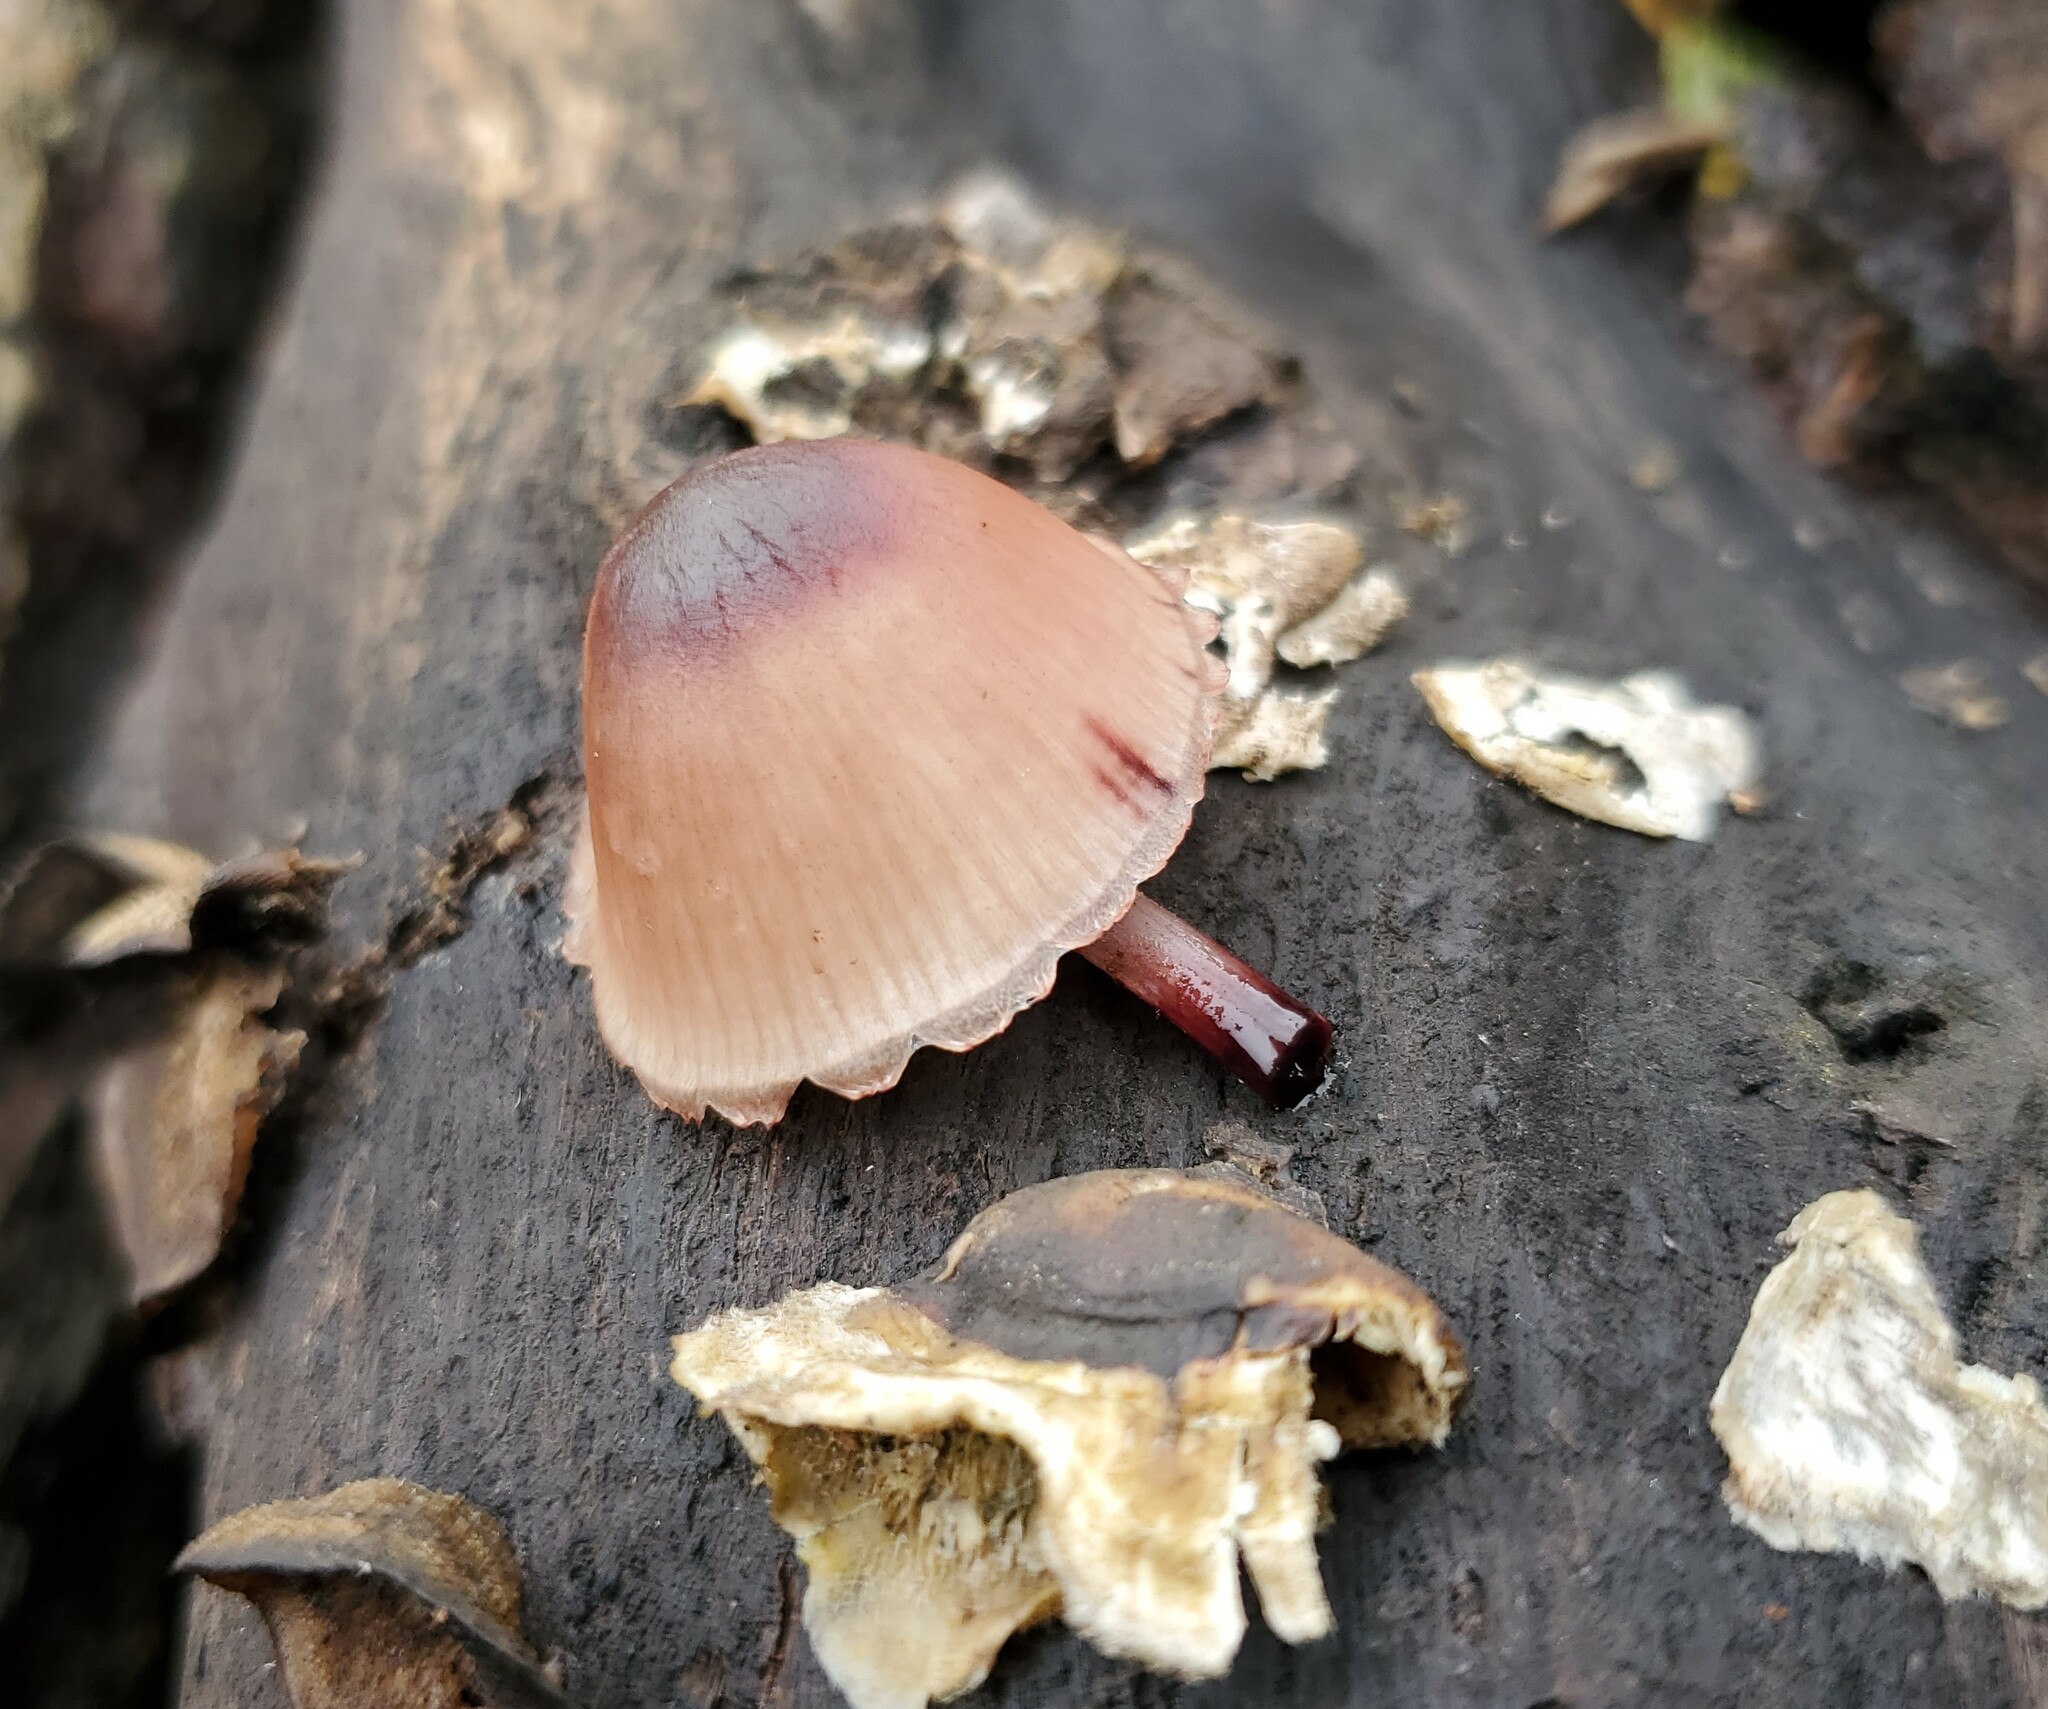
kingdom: Fungi
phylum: Basidiomycota
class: Agaricomycetes
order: Agaricales
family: Mycenaceae
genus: Mycena
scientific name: Mycena haematopus
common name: Burgundydrop bonnet
